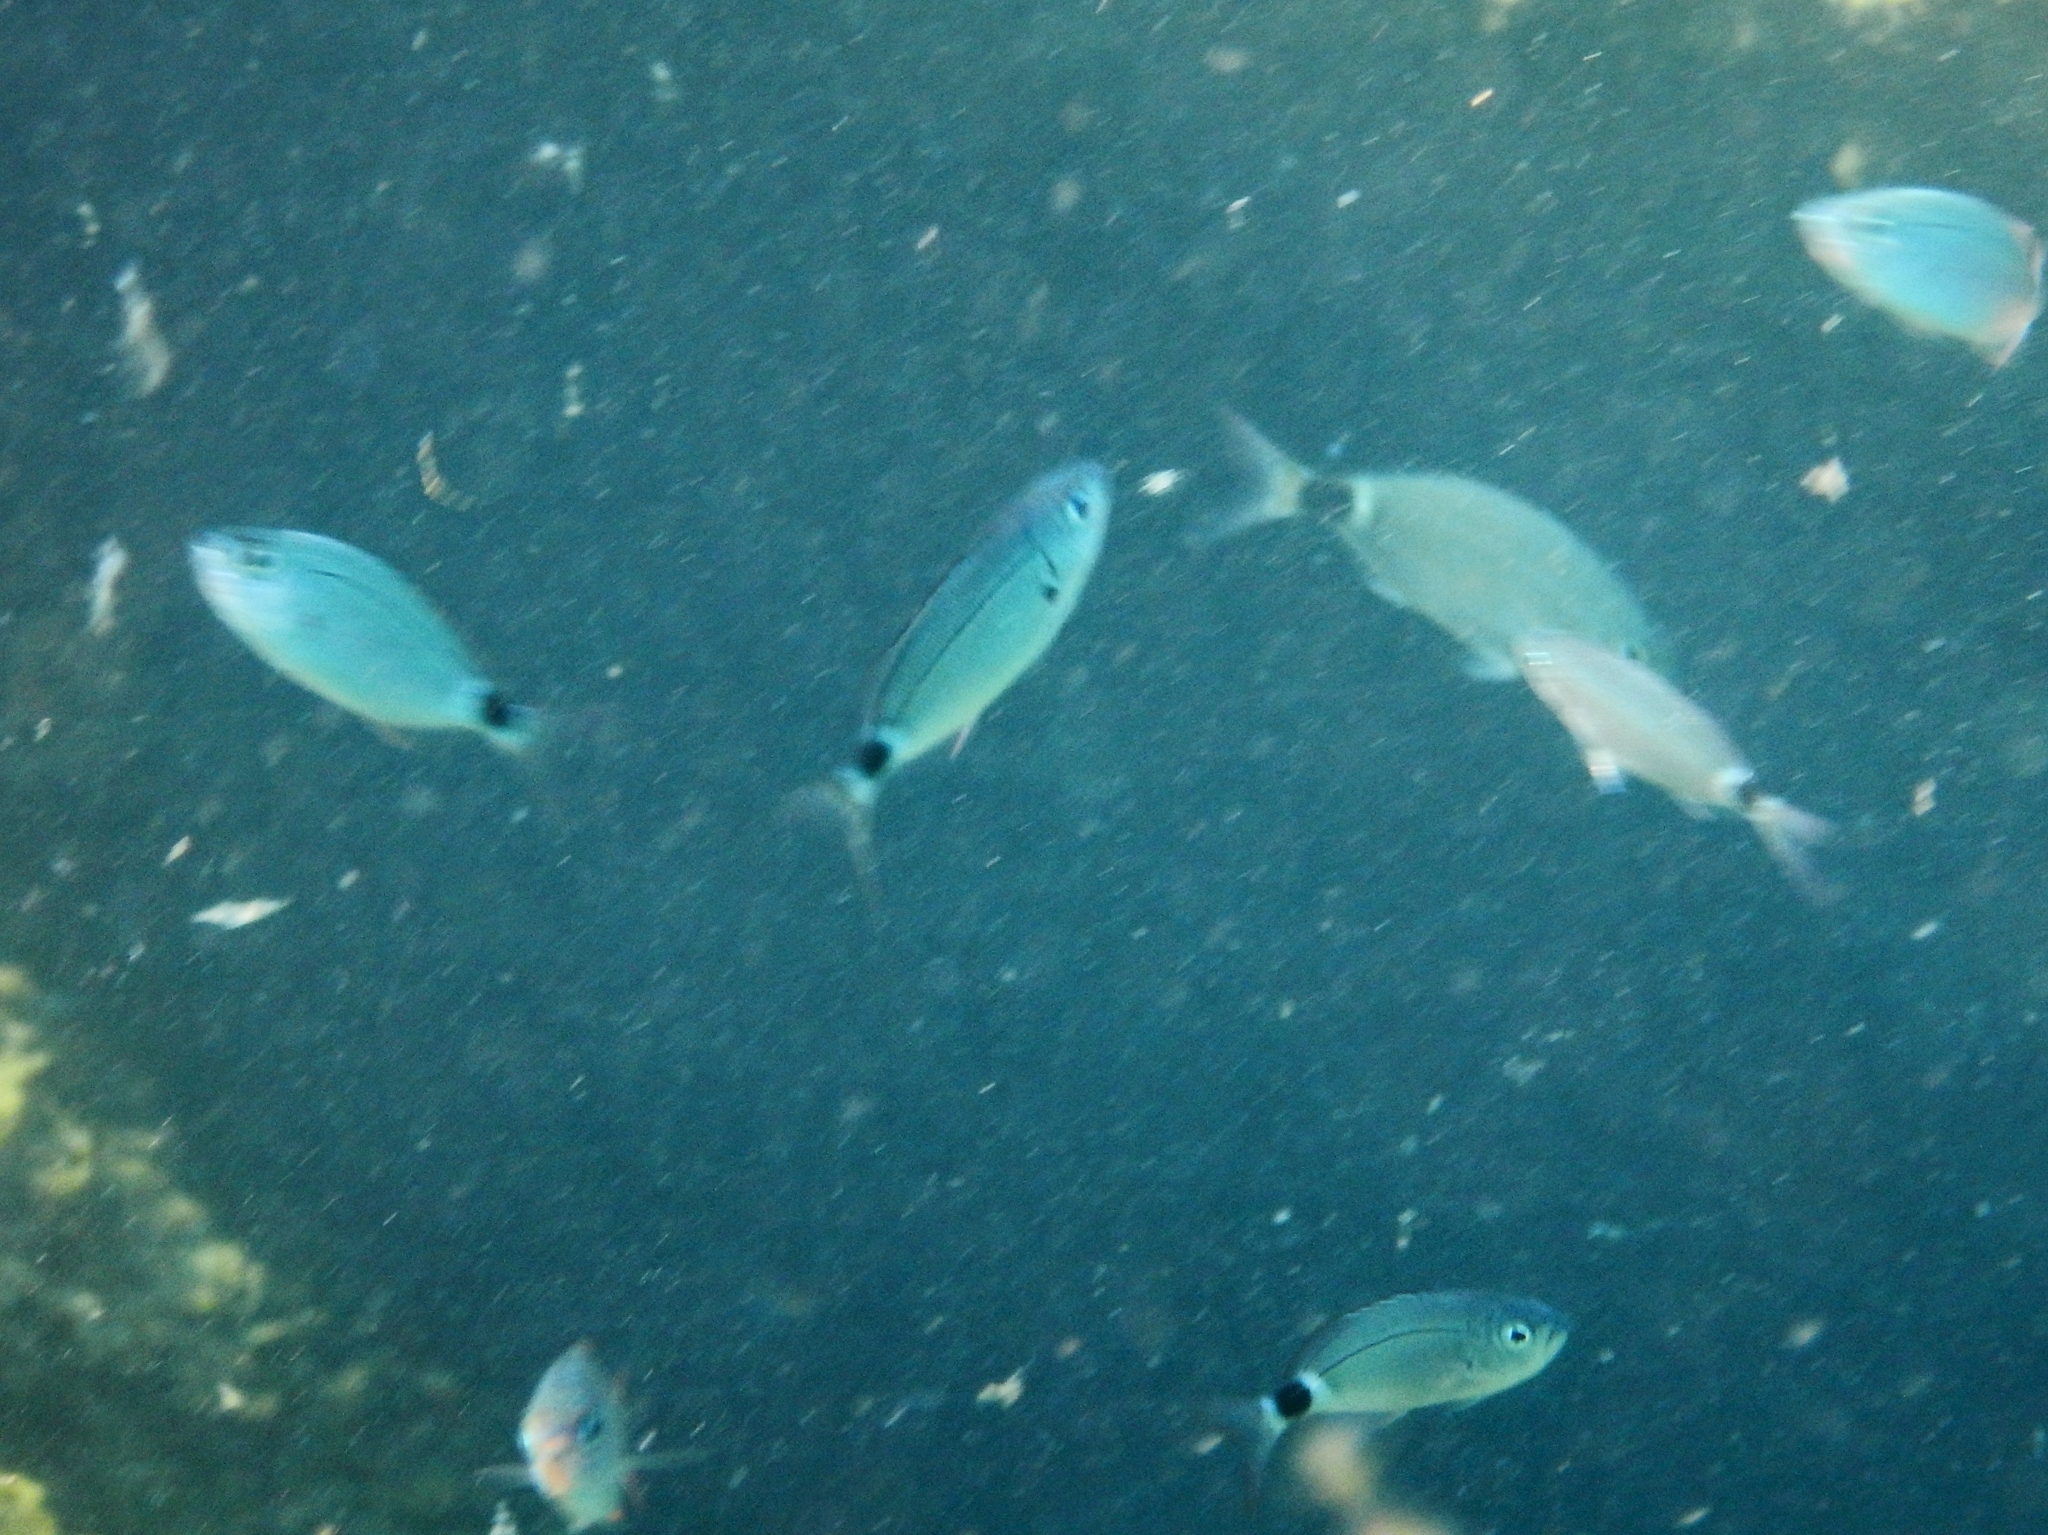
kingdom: Animalia
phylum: Chordata
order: Perciformes
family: Sparidae
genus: Oblada
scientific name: Oblada melanura
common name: Saddled seabream
